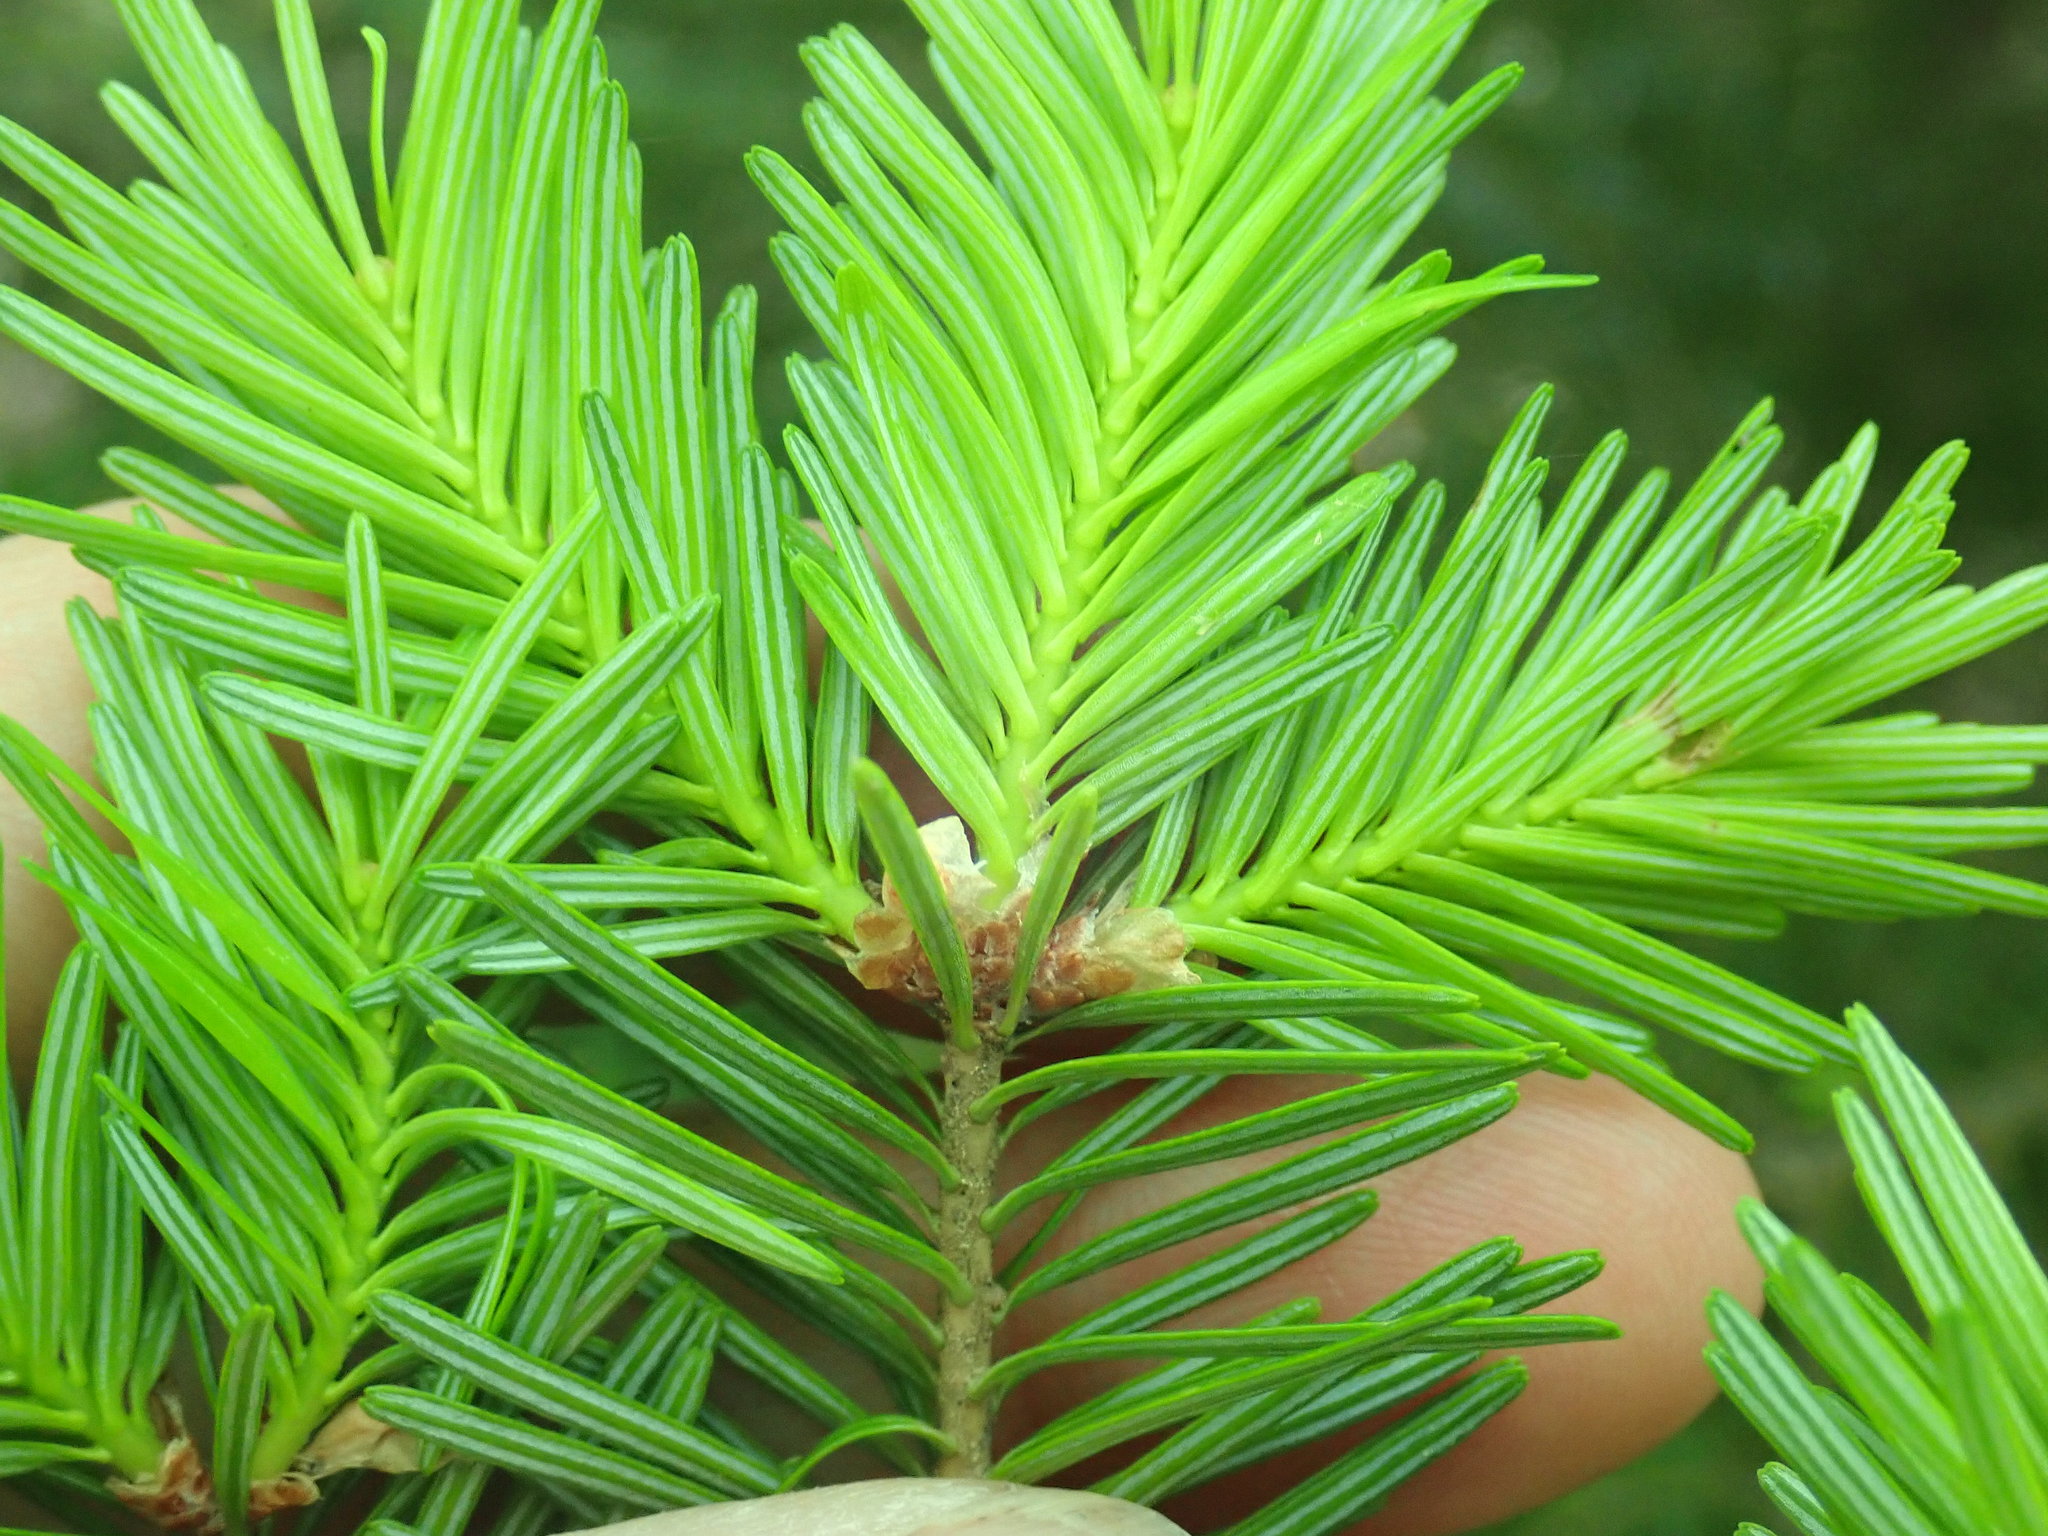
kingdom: Plantae
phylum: Tracheophyta
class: Pinopsida
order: Pinales
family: Pinaceae
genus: Abies
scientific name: Abies balsamea
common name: Balsam fir
